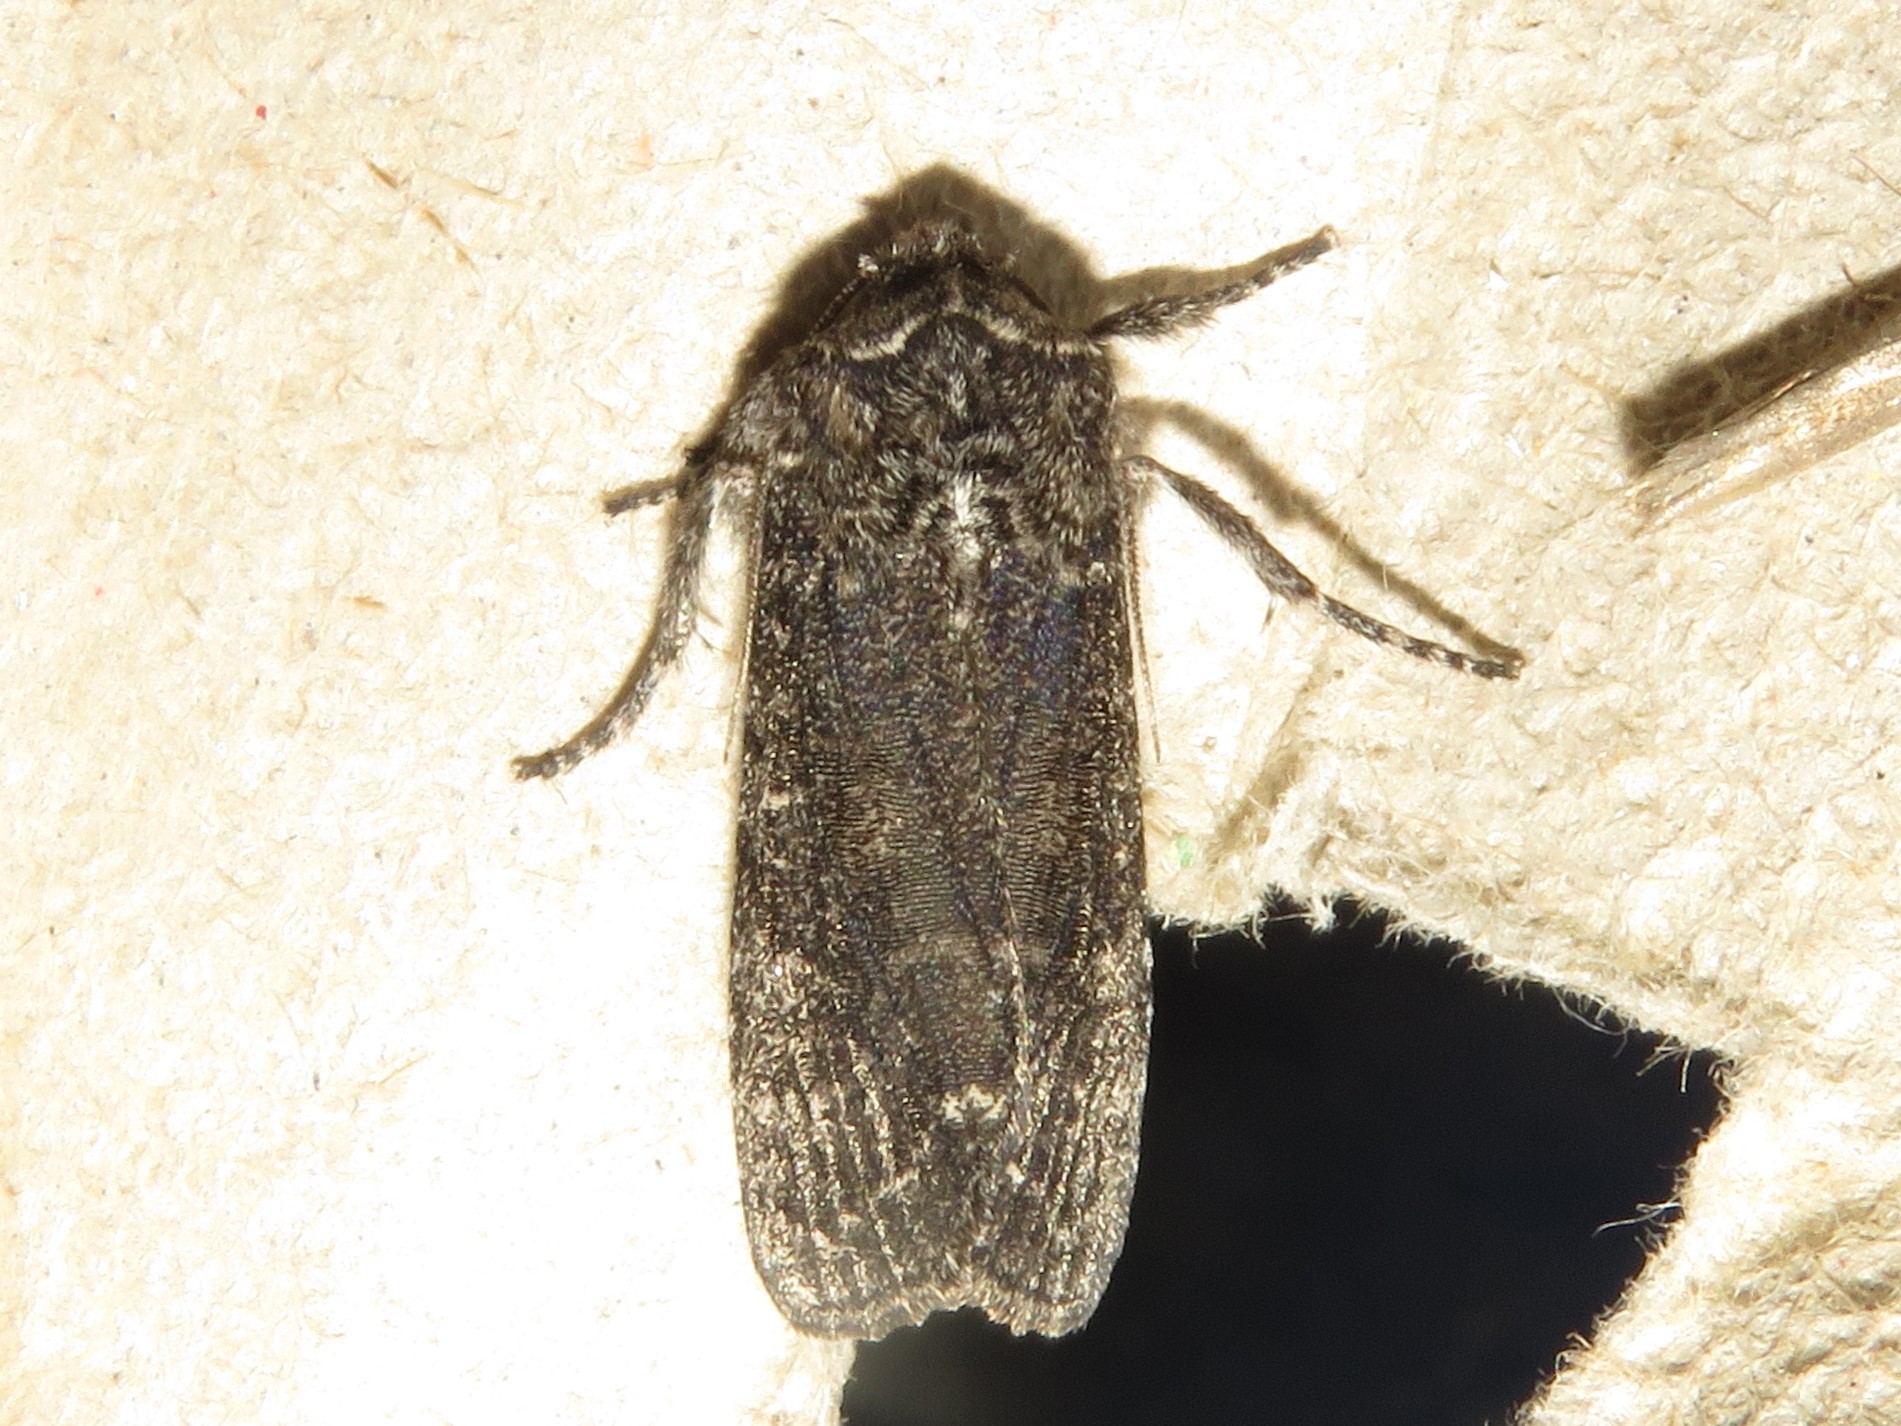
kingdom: Animalia
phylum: Arthropoda
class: Insecta
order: Lepidoptera
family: Noctuidae
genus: Egira
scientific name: Egira dolosa
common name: Lined black aspen cat.
